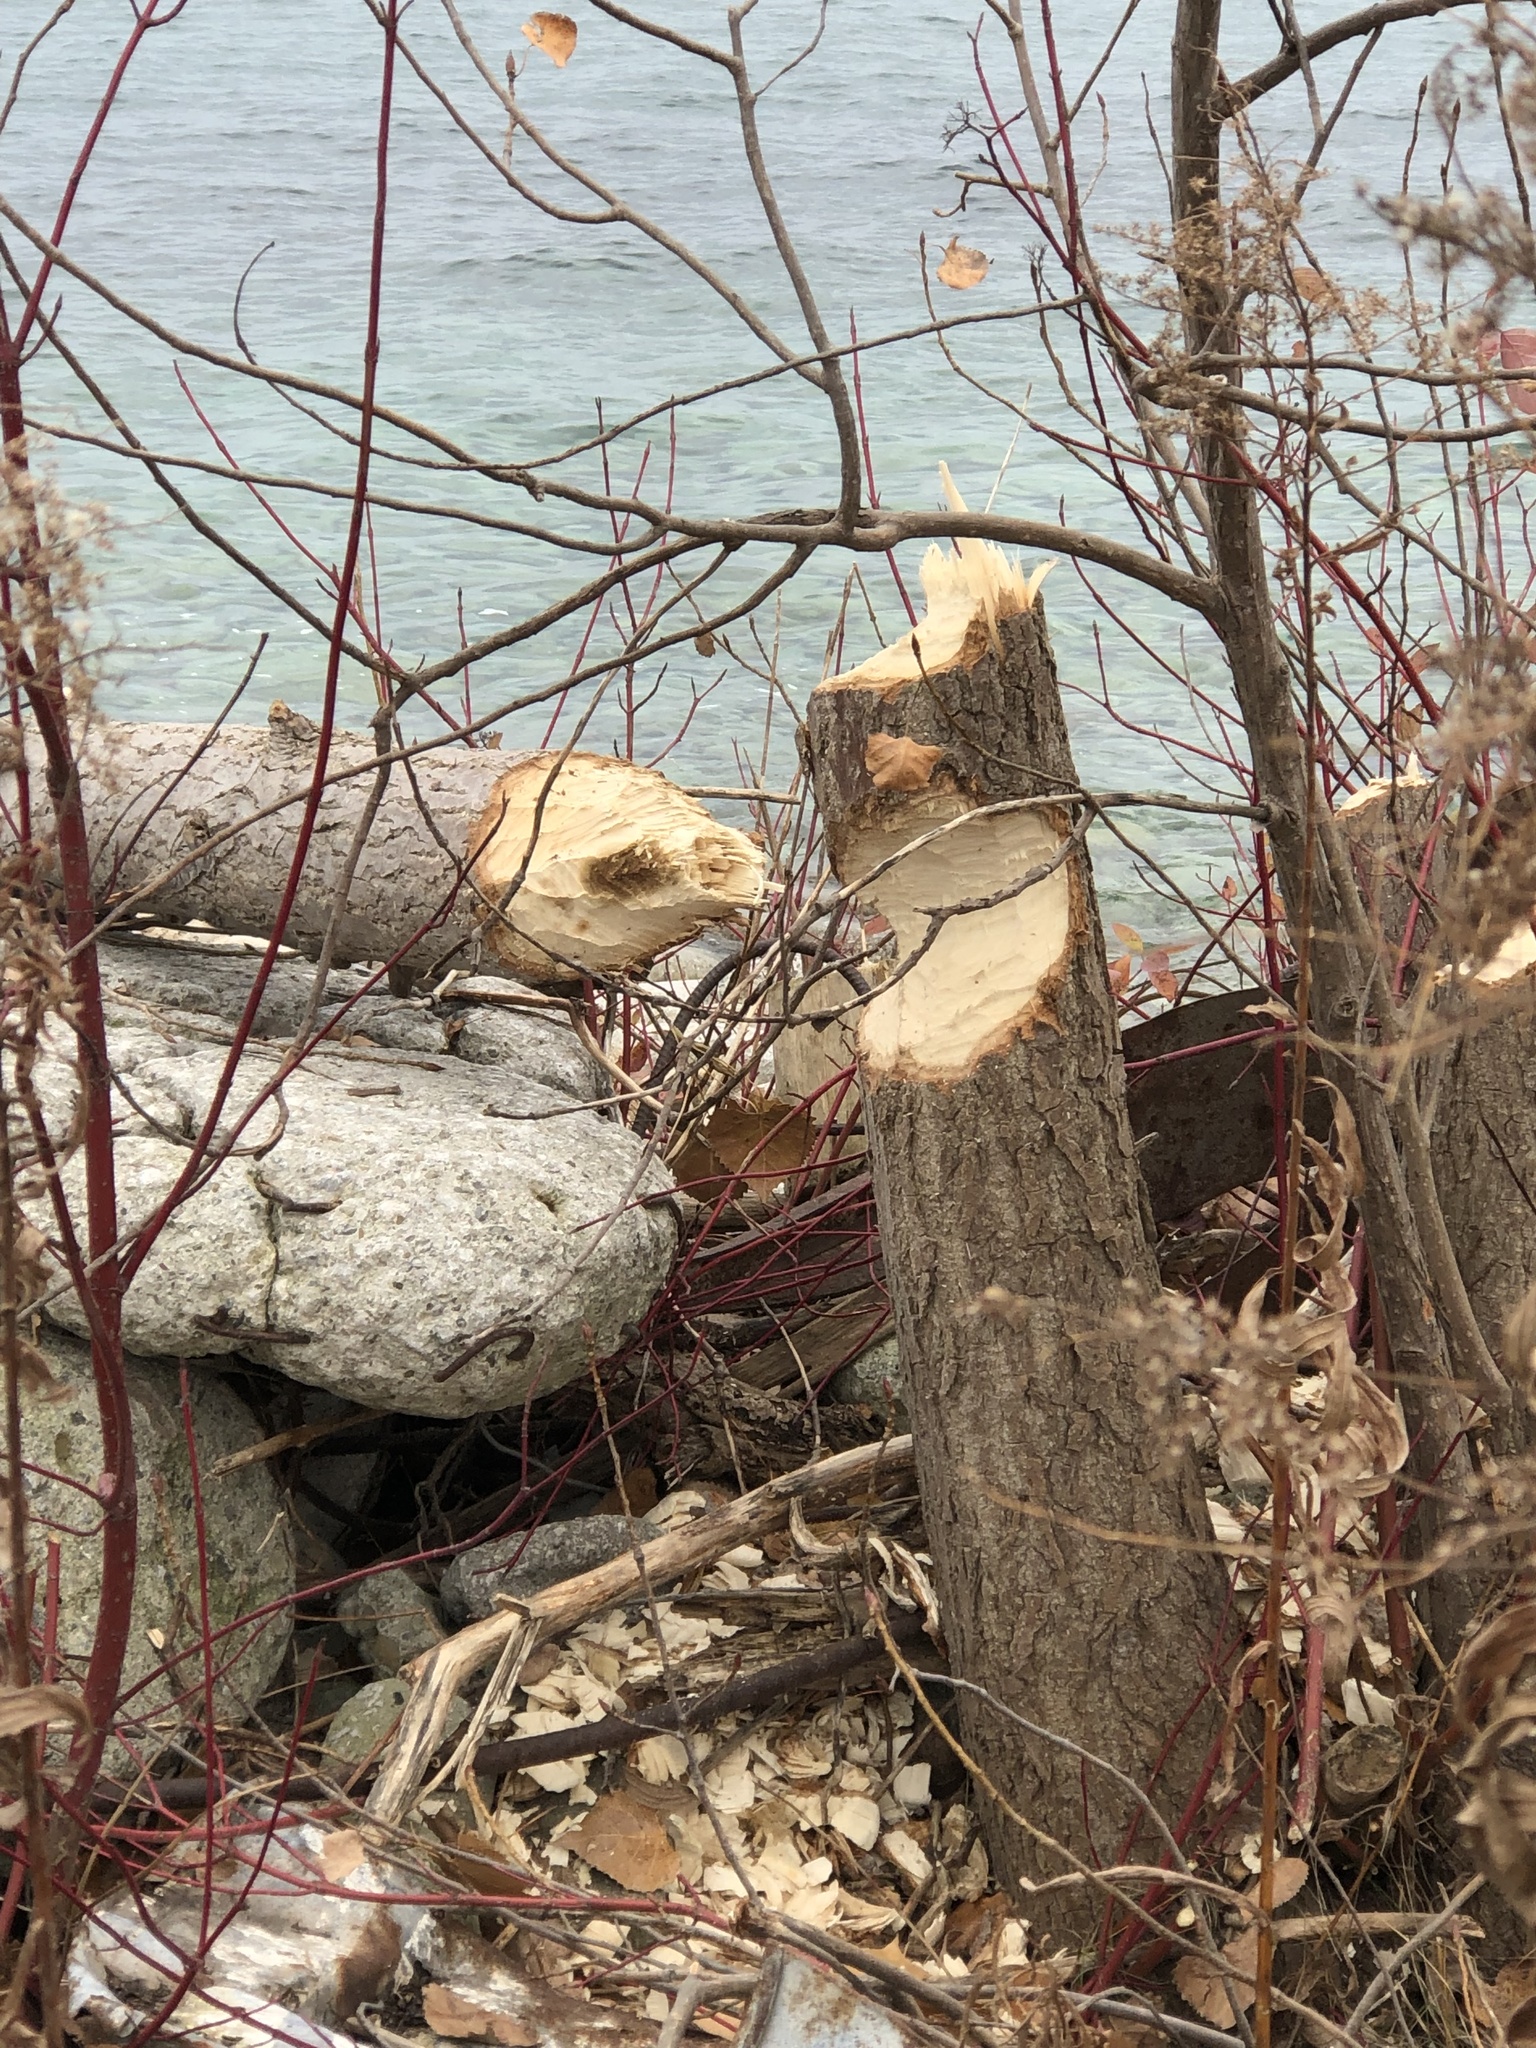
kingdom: Animalia
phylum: Chordata
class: Mammalia
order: Rodentia
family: Castoridae
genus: Castor
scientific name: Castor canadensis
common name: American beaver
